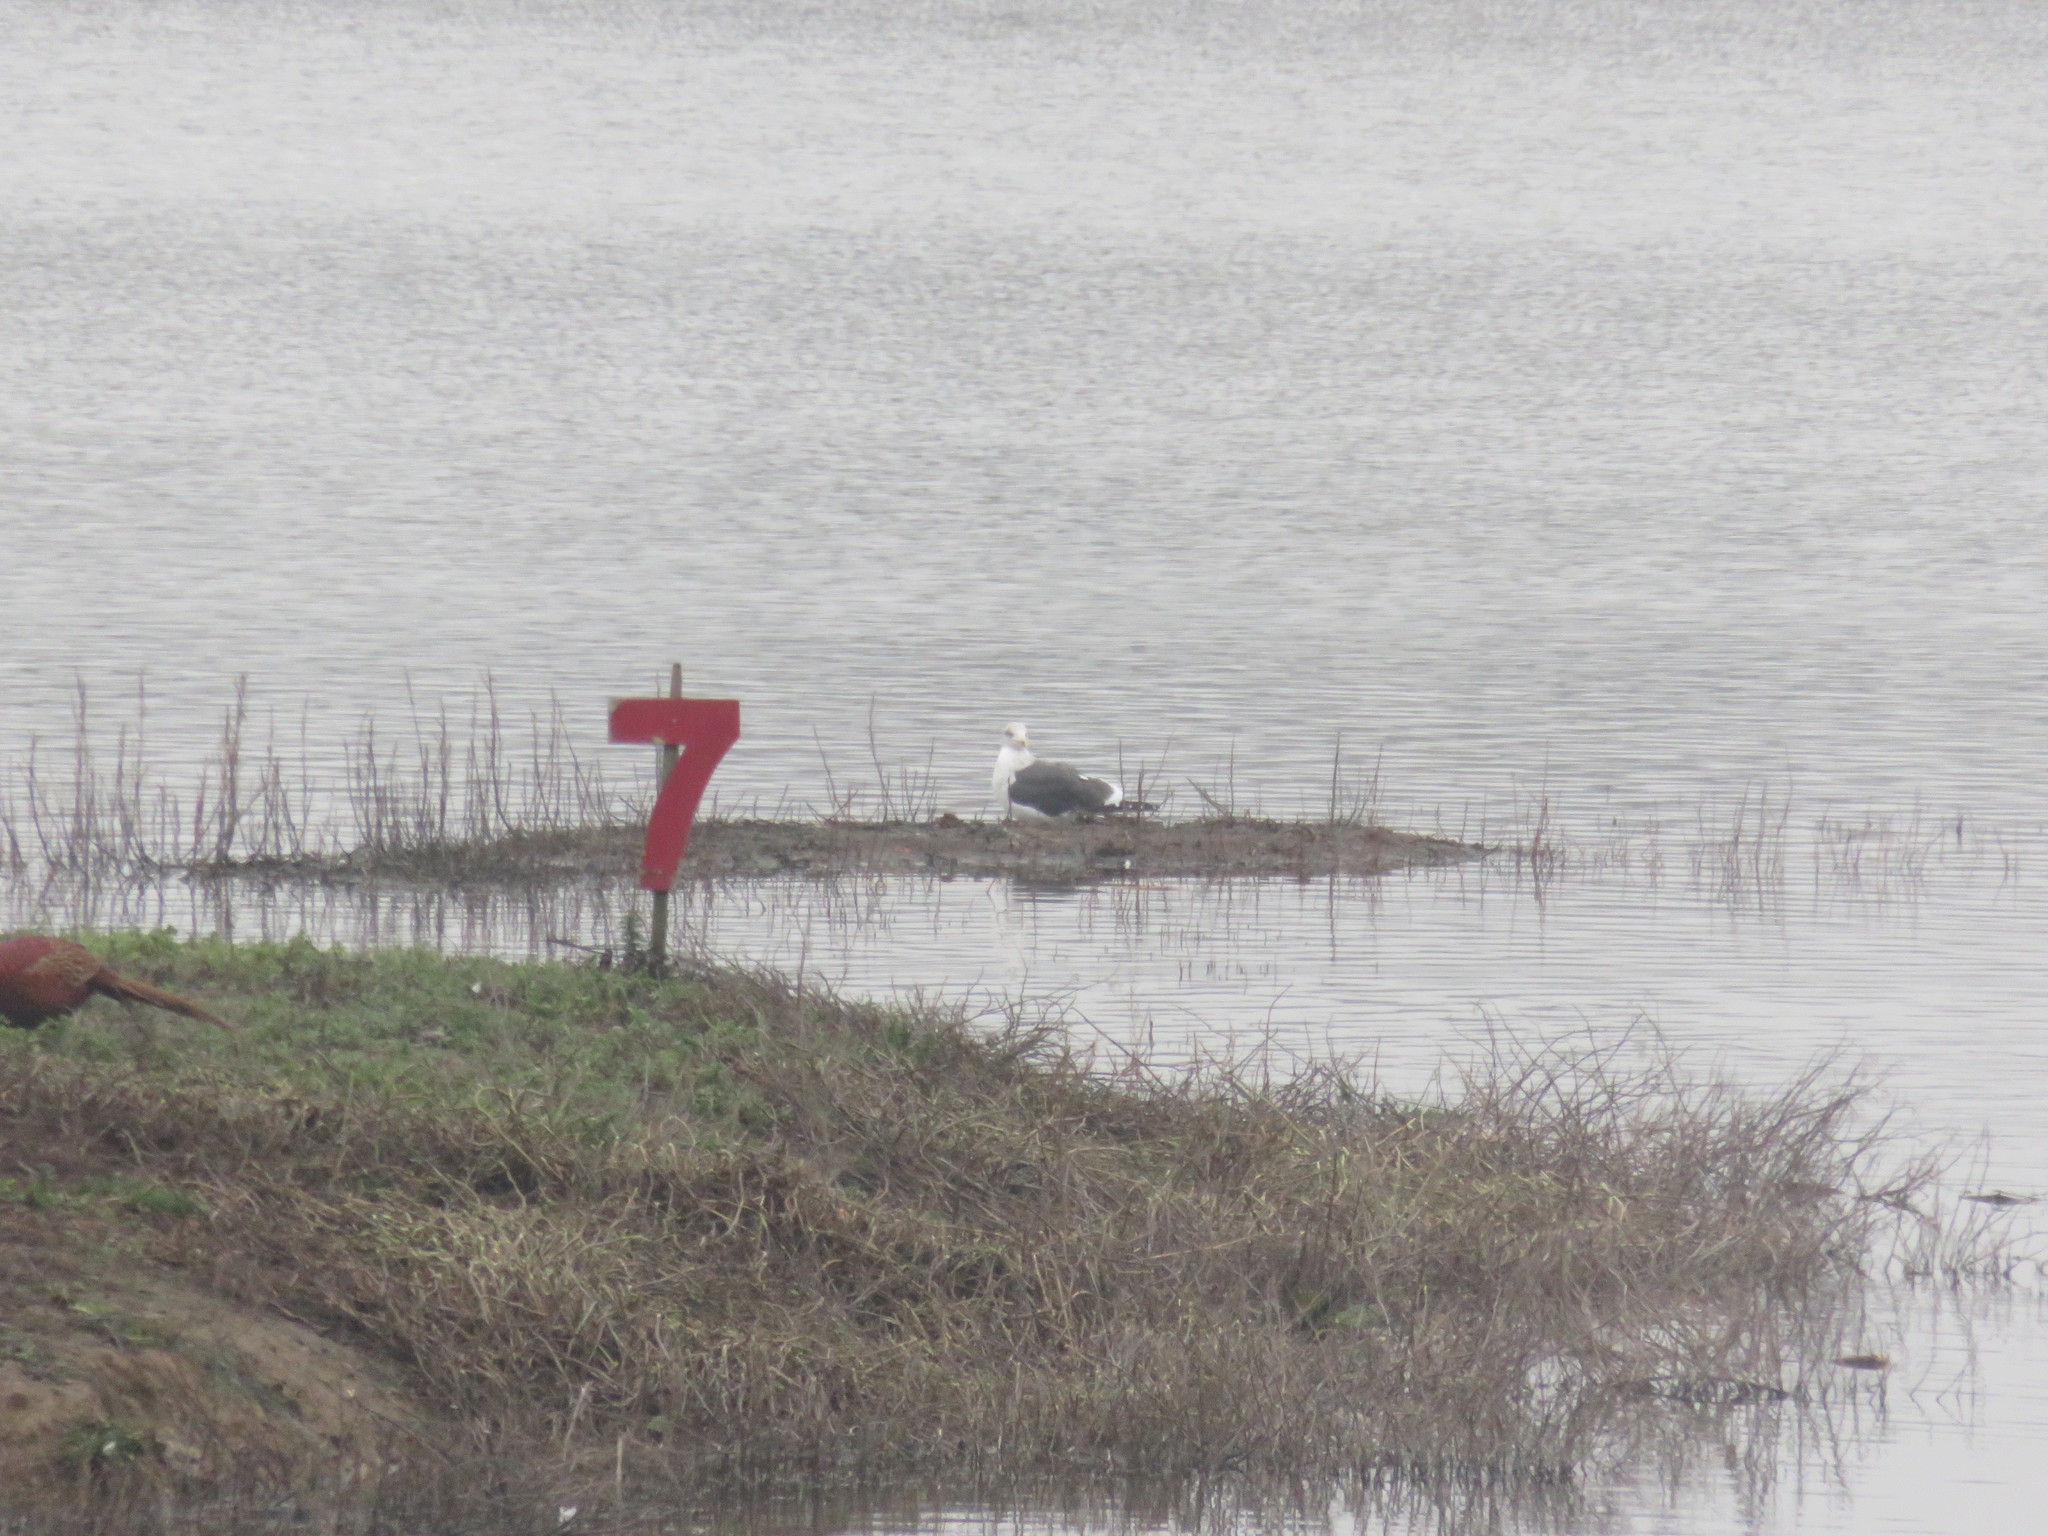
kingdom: Animalia
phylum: Chordata
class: Aves
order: Charadriiformes
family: Laridae
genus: Larus
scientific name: Larus fuscus
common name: Lesser black-backed gull
